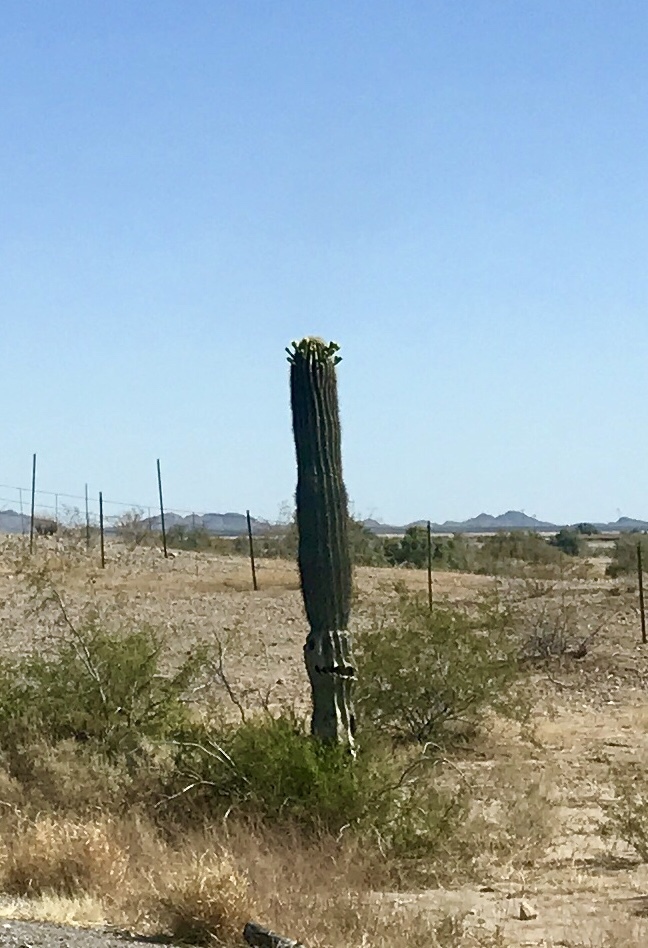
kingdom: Plantae
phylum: Tracheophyta
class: Magnoliopsida
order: Caryophyllales
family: Cactaceae
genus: Carnegiea
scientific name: Carnegiea gigantea
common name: Saguaro
